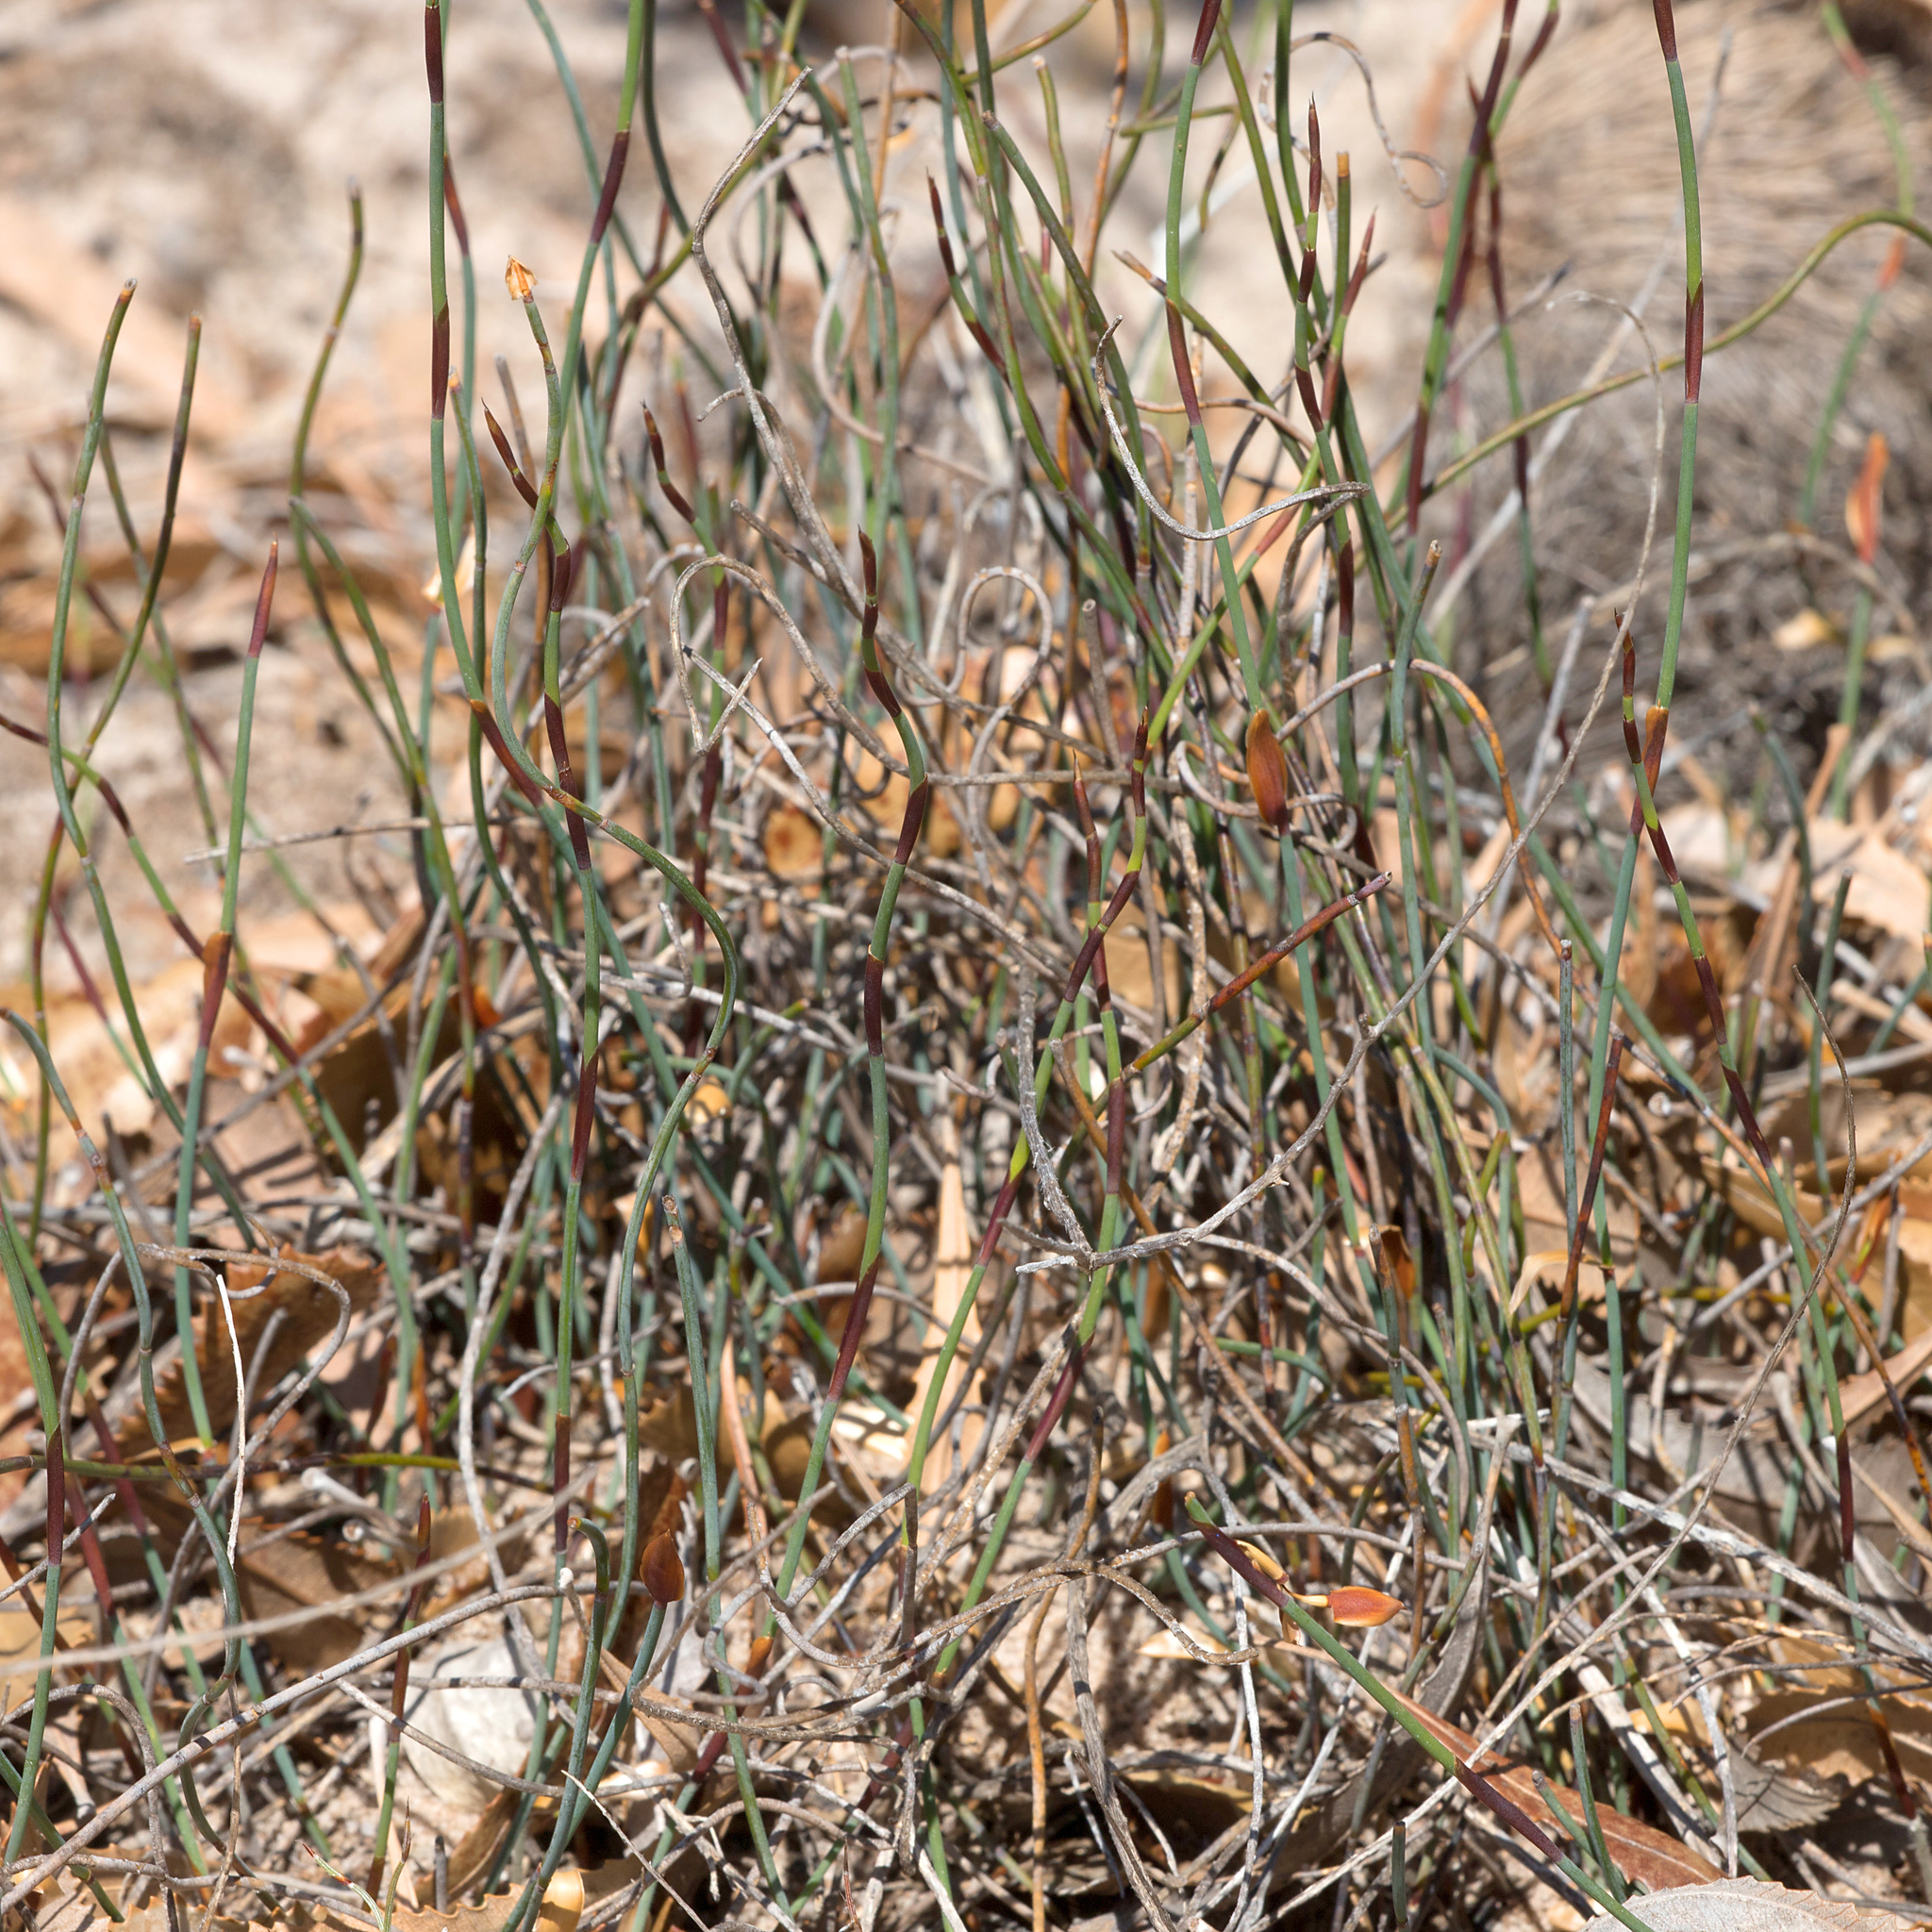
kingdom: Plantae
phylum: Tracheophyta
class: Liliopsida
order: Poales
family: Restionaceae
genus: Lepidobolus
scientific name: Lepidobolus drapetocoleus
